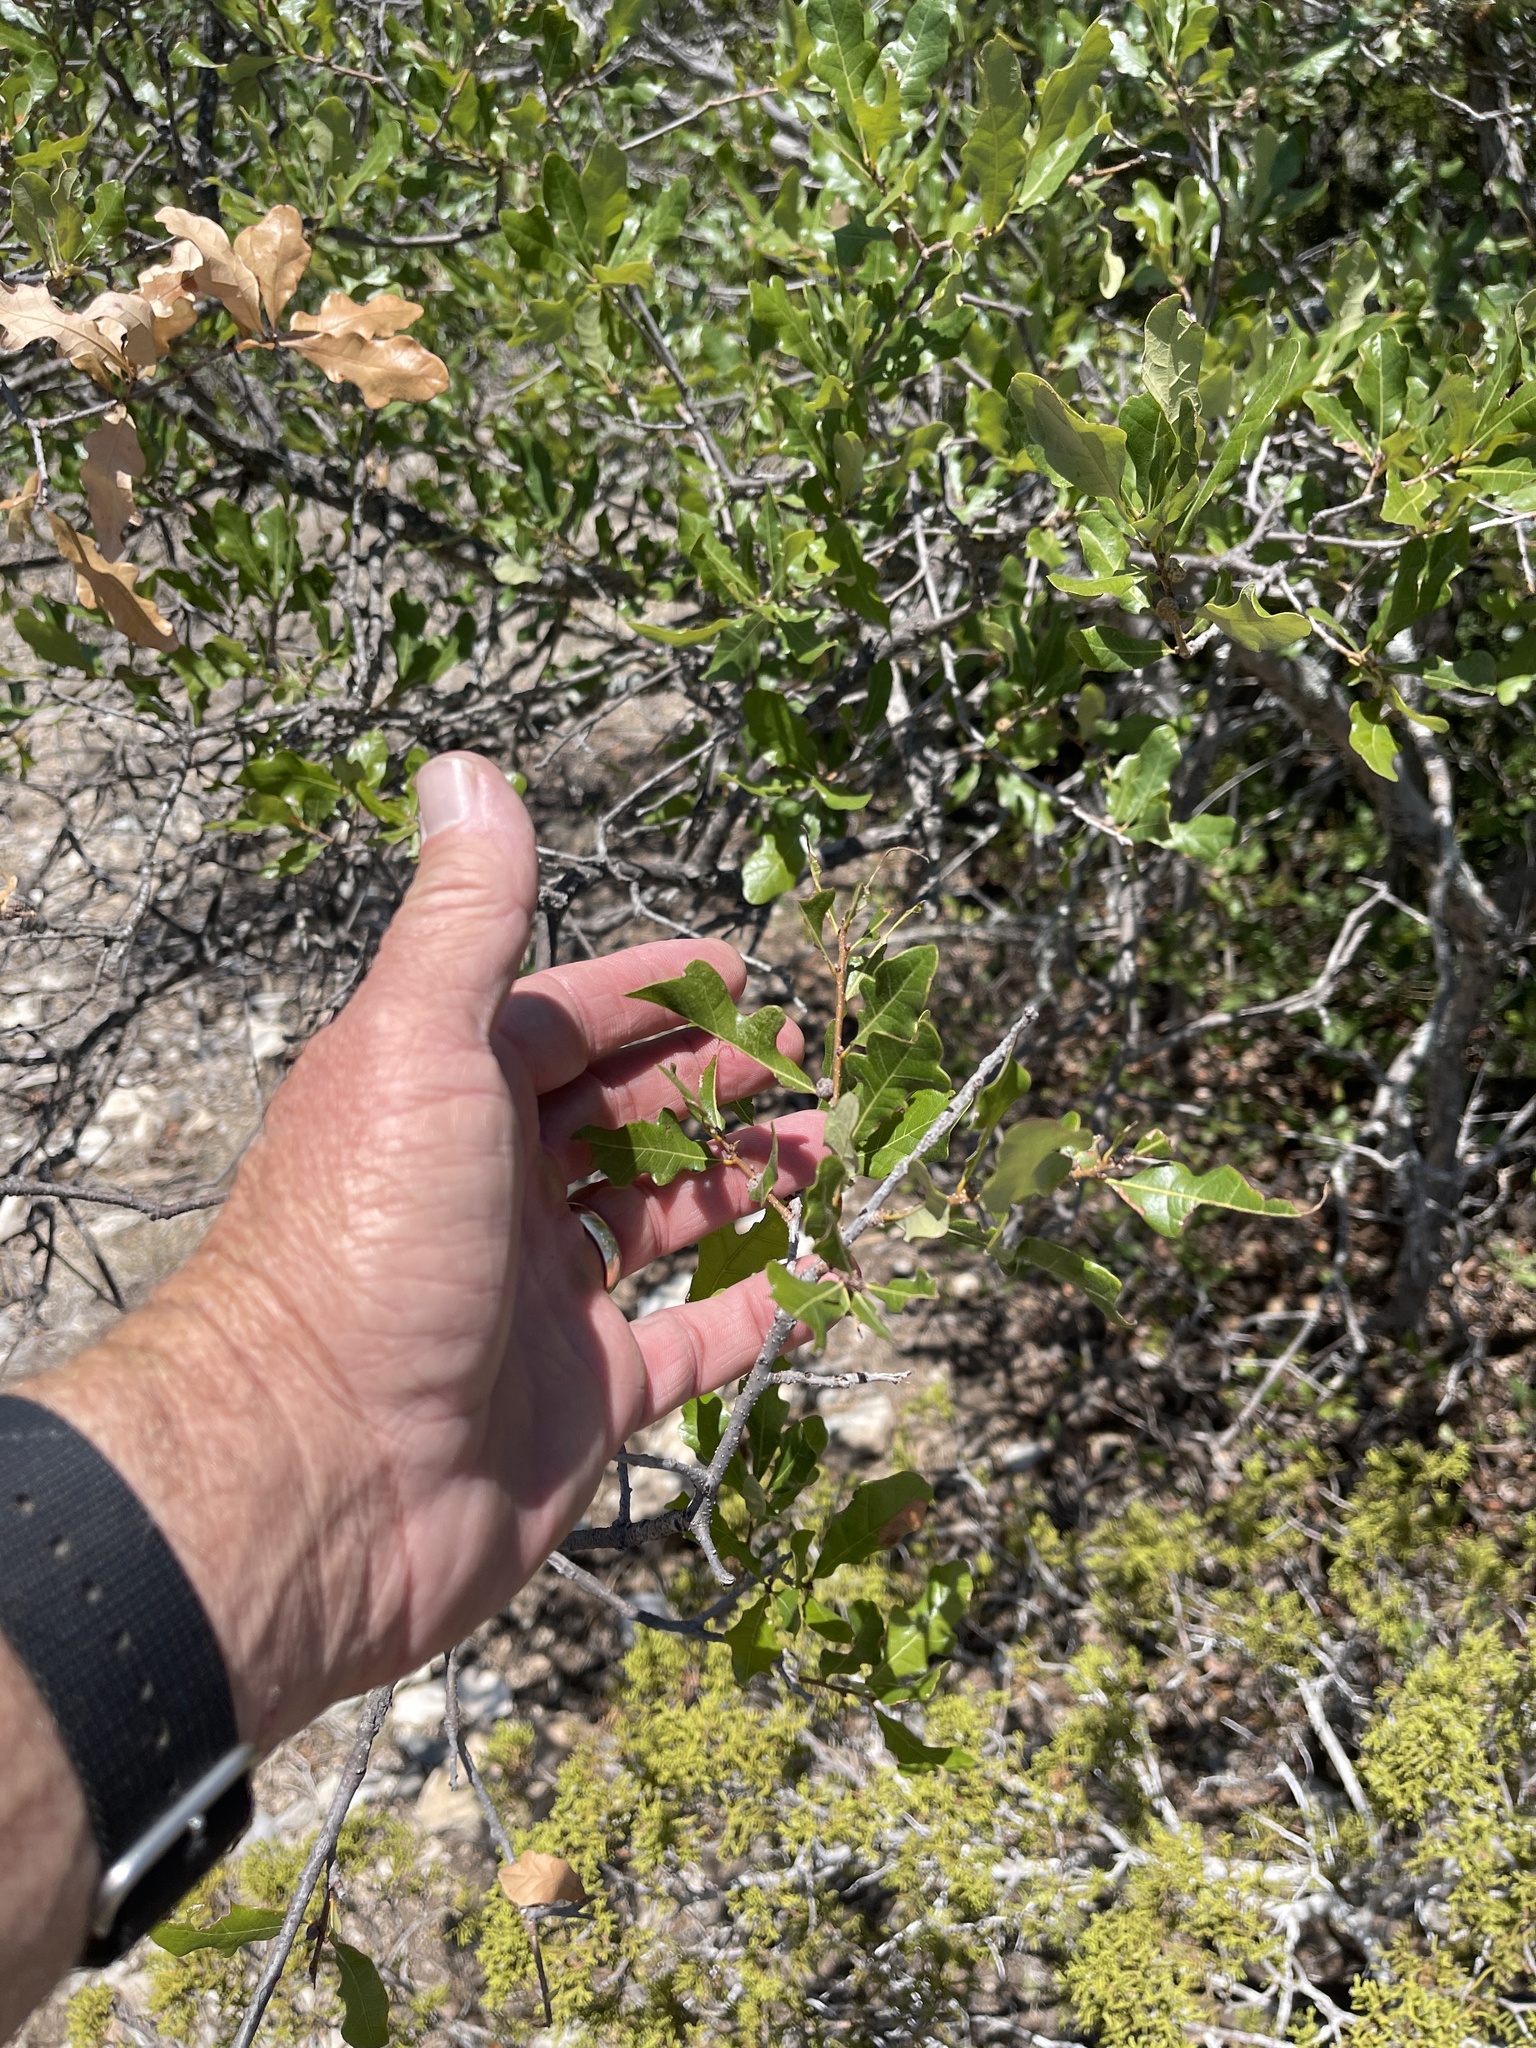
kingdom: Plantae
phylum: Tracheophyta
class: Magnoliopsida
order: Fagales
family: Fagaceae
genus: Quercus
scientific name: Quercus sinuata
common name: Durand oak
